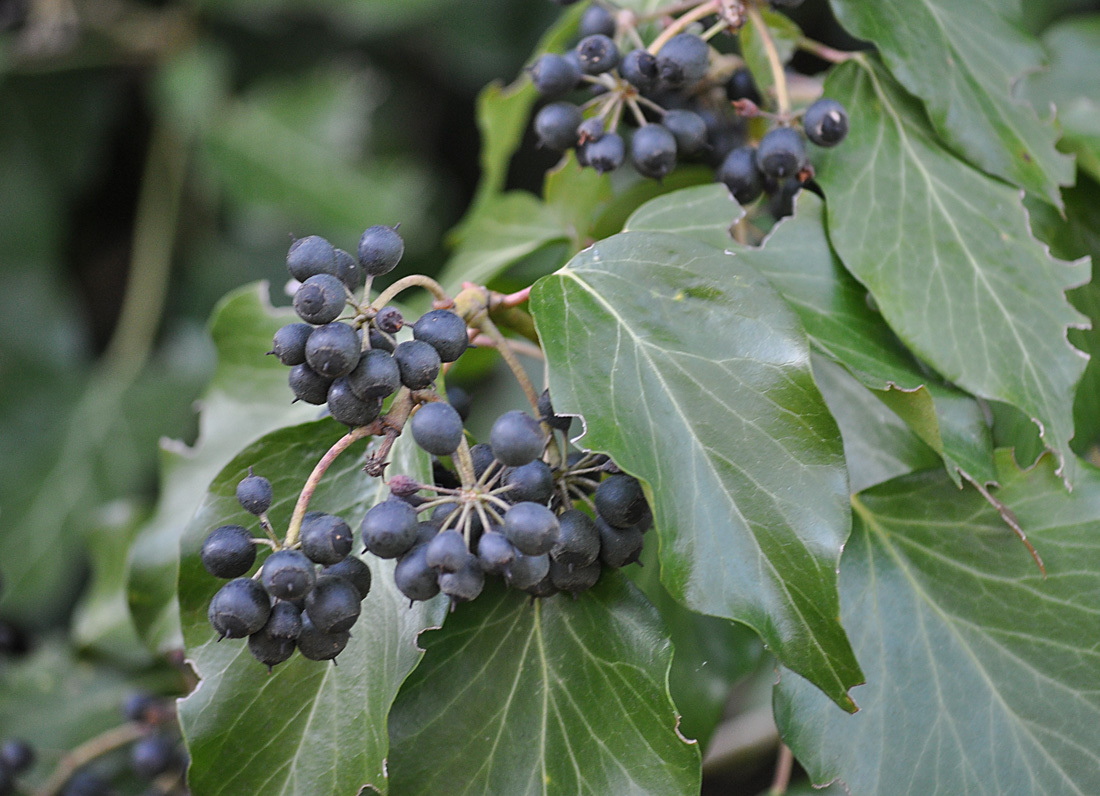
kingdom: Plantae
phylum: Tracheophyta
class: Magnoliopsida
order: Apiales
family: Araliaceae
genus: Hedera
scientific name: Hedera helix
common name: Ivy
